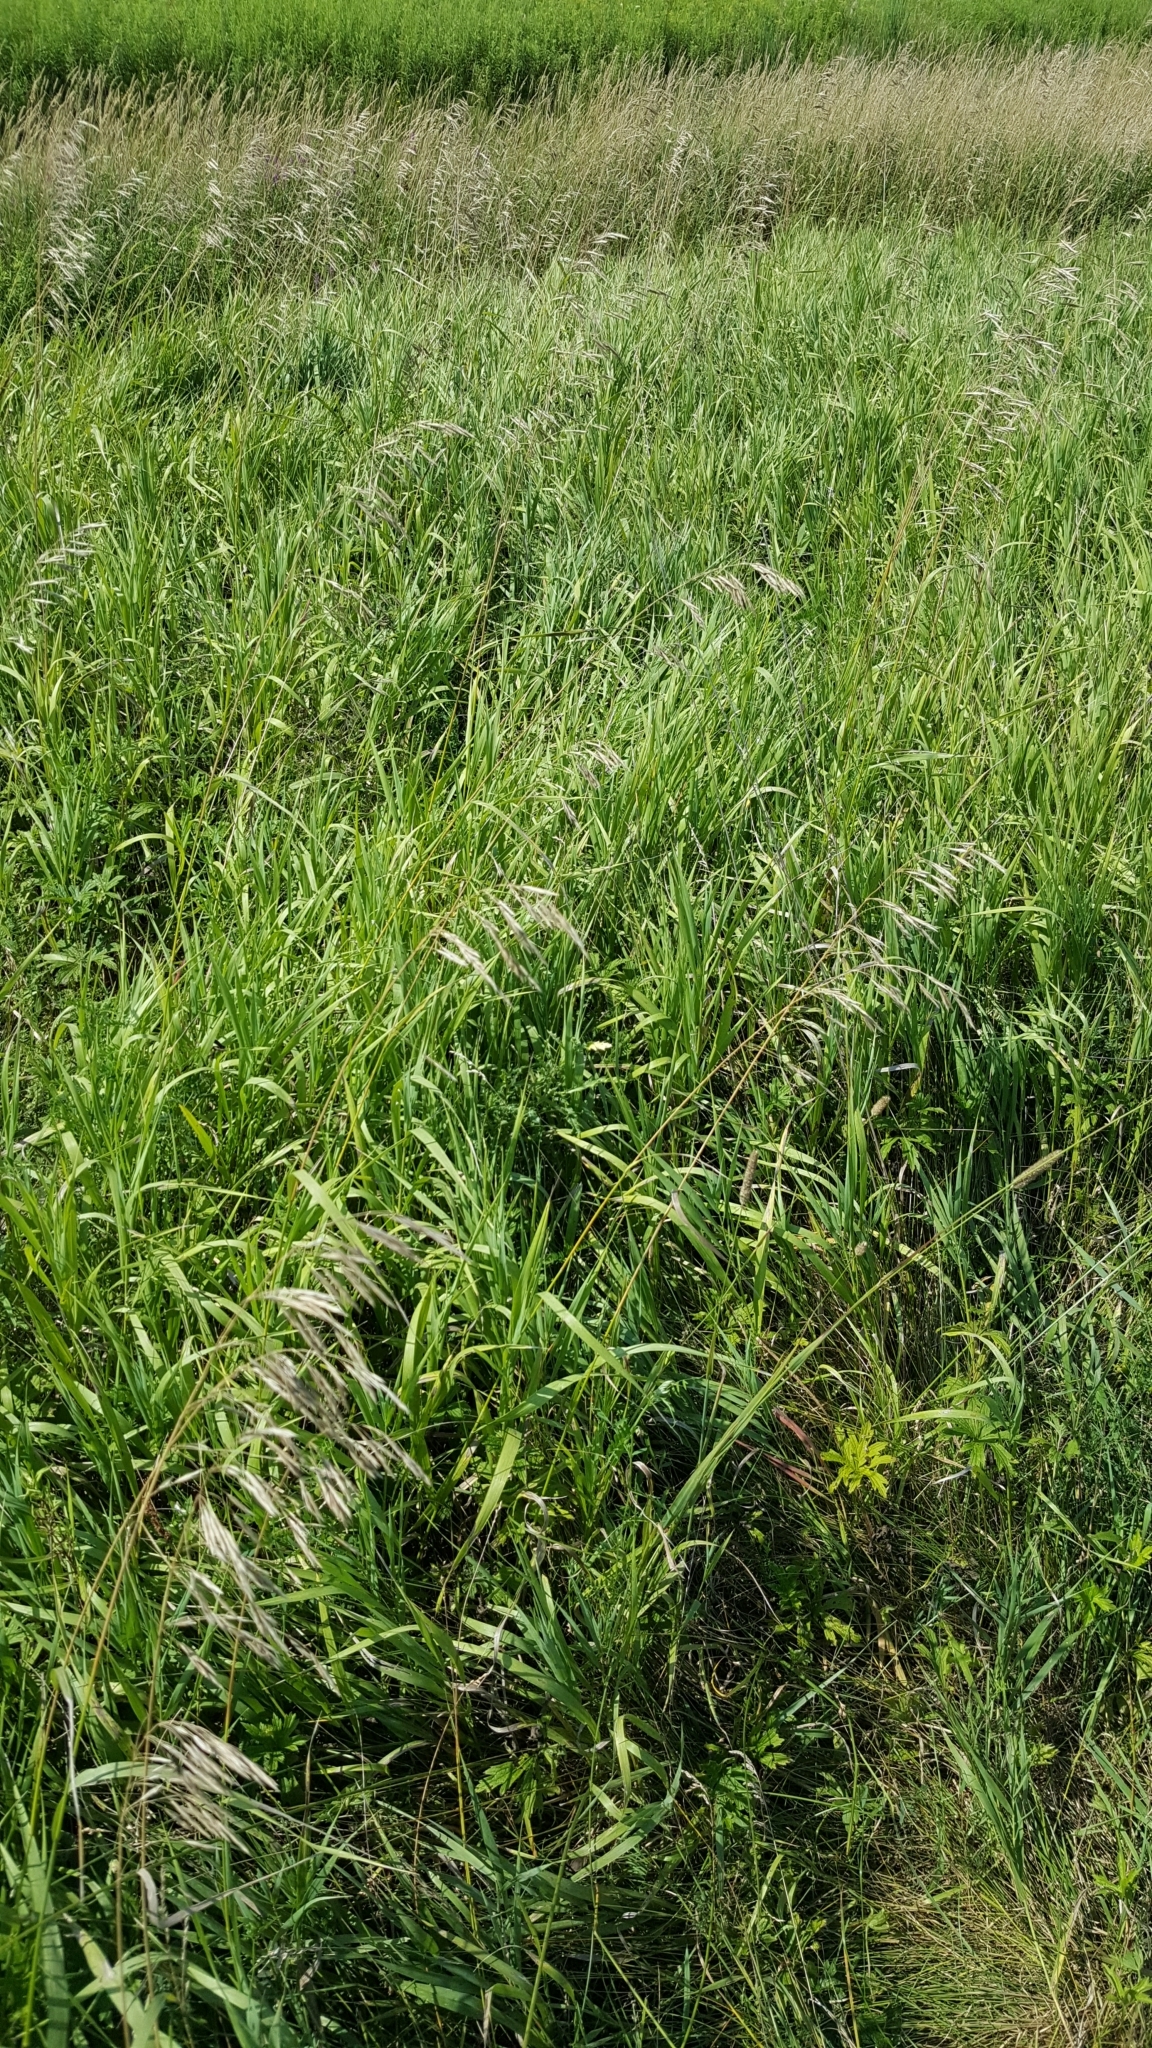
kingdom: Plantae
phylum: Tracheophyta
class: Liliopsida
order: Poales
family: Poaceae
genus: Bromus
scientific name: Bromus inermis
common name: Smooth brome
